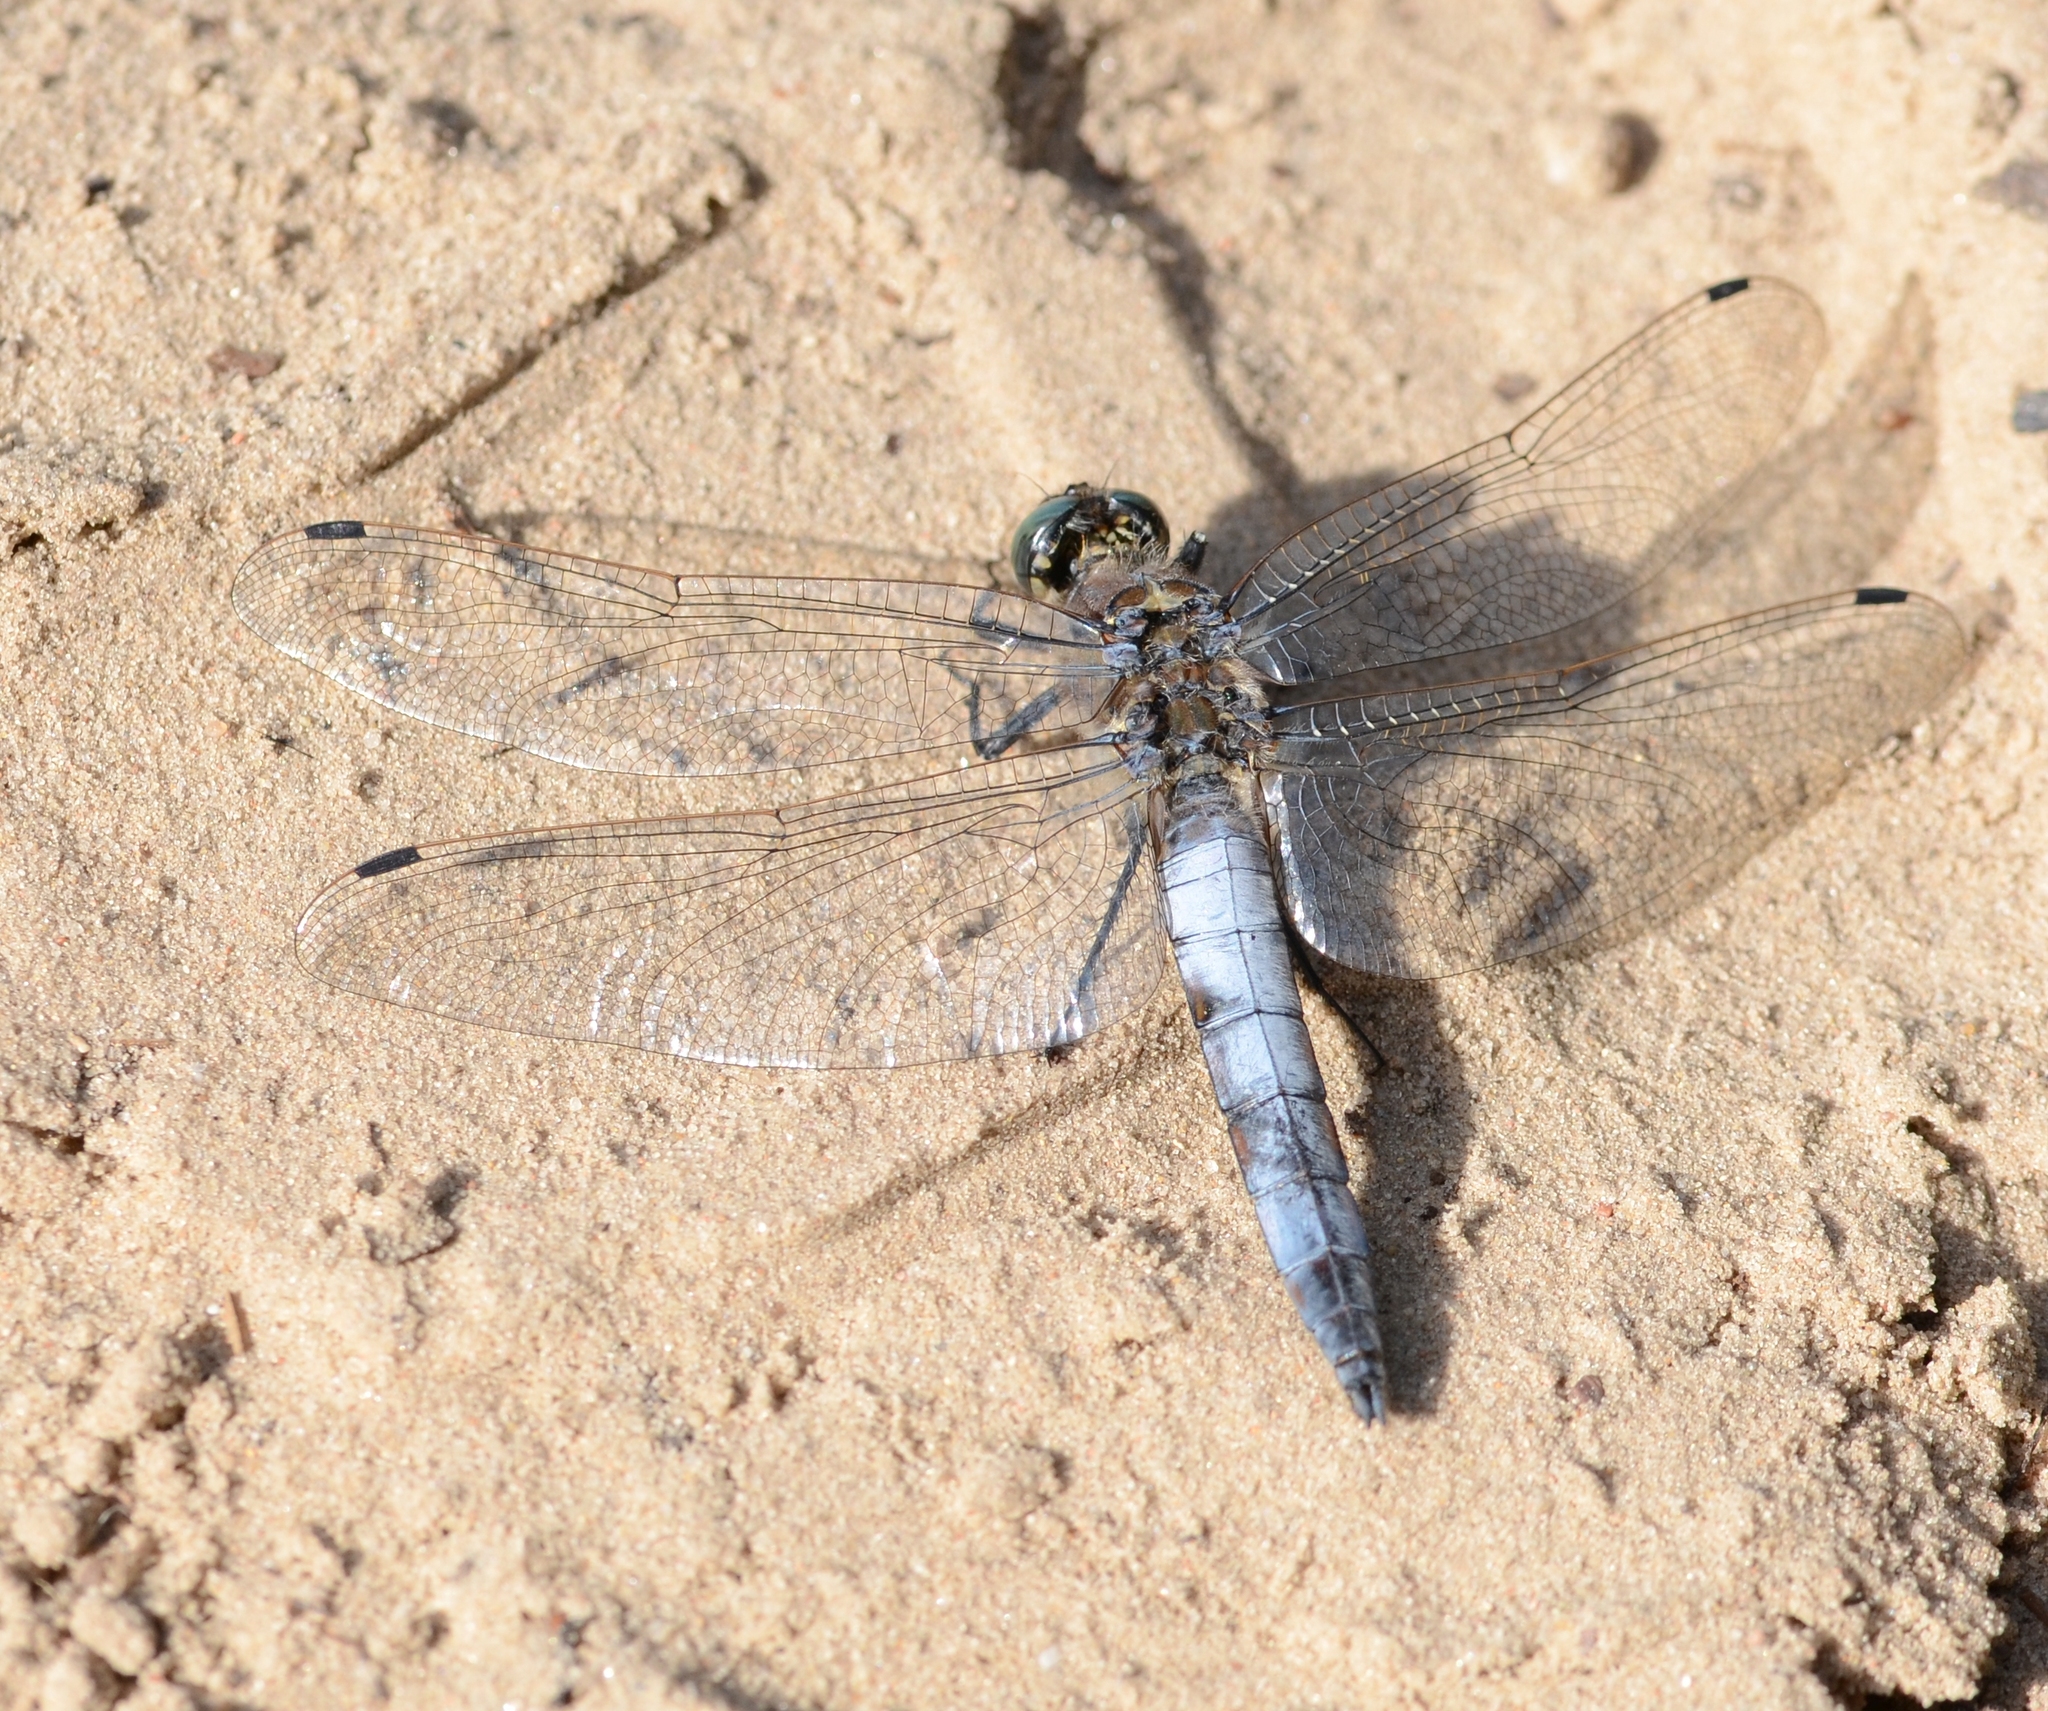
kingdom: Animalia
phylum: Arthropoda
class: Insecta
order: Odonata
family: Libellulidae
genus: Orthetrum
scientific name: Orthetrum cancellatum
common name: Black-tailed skimmer
